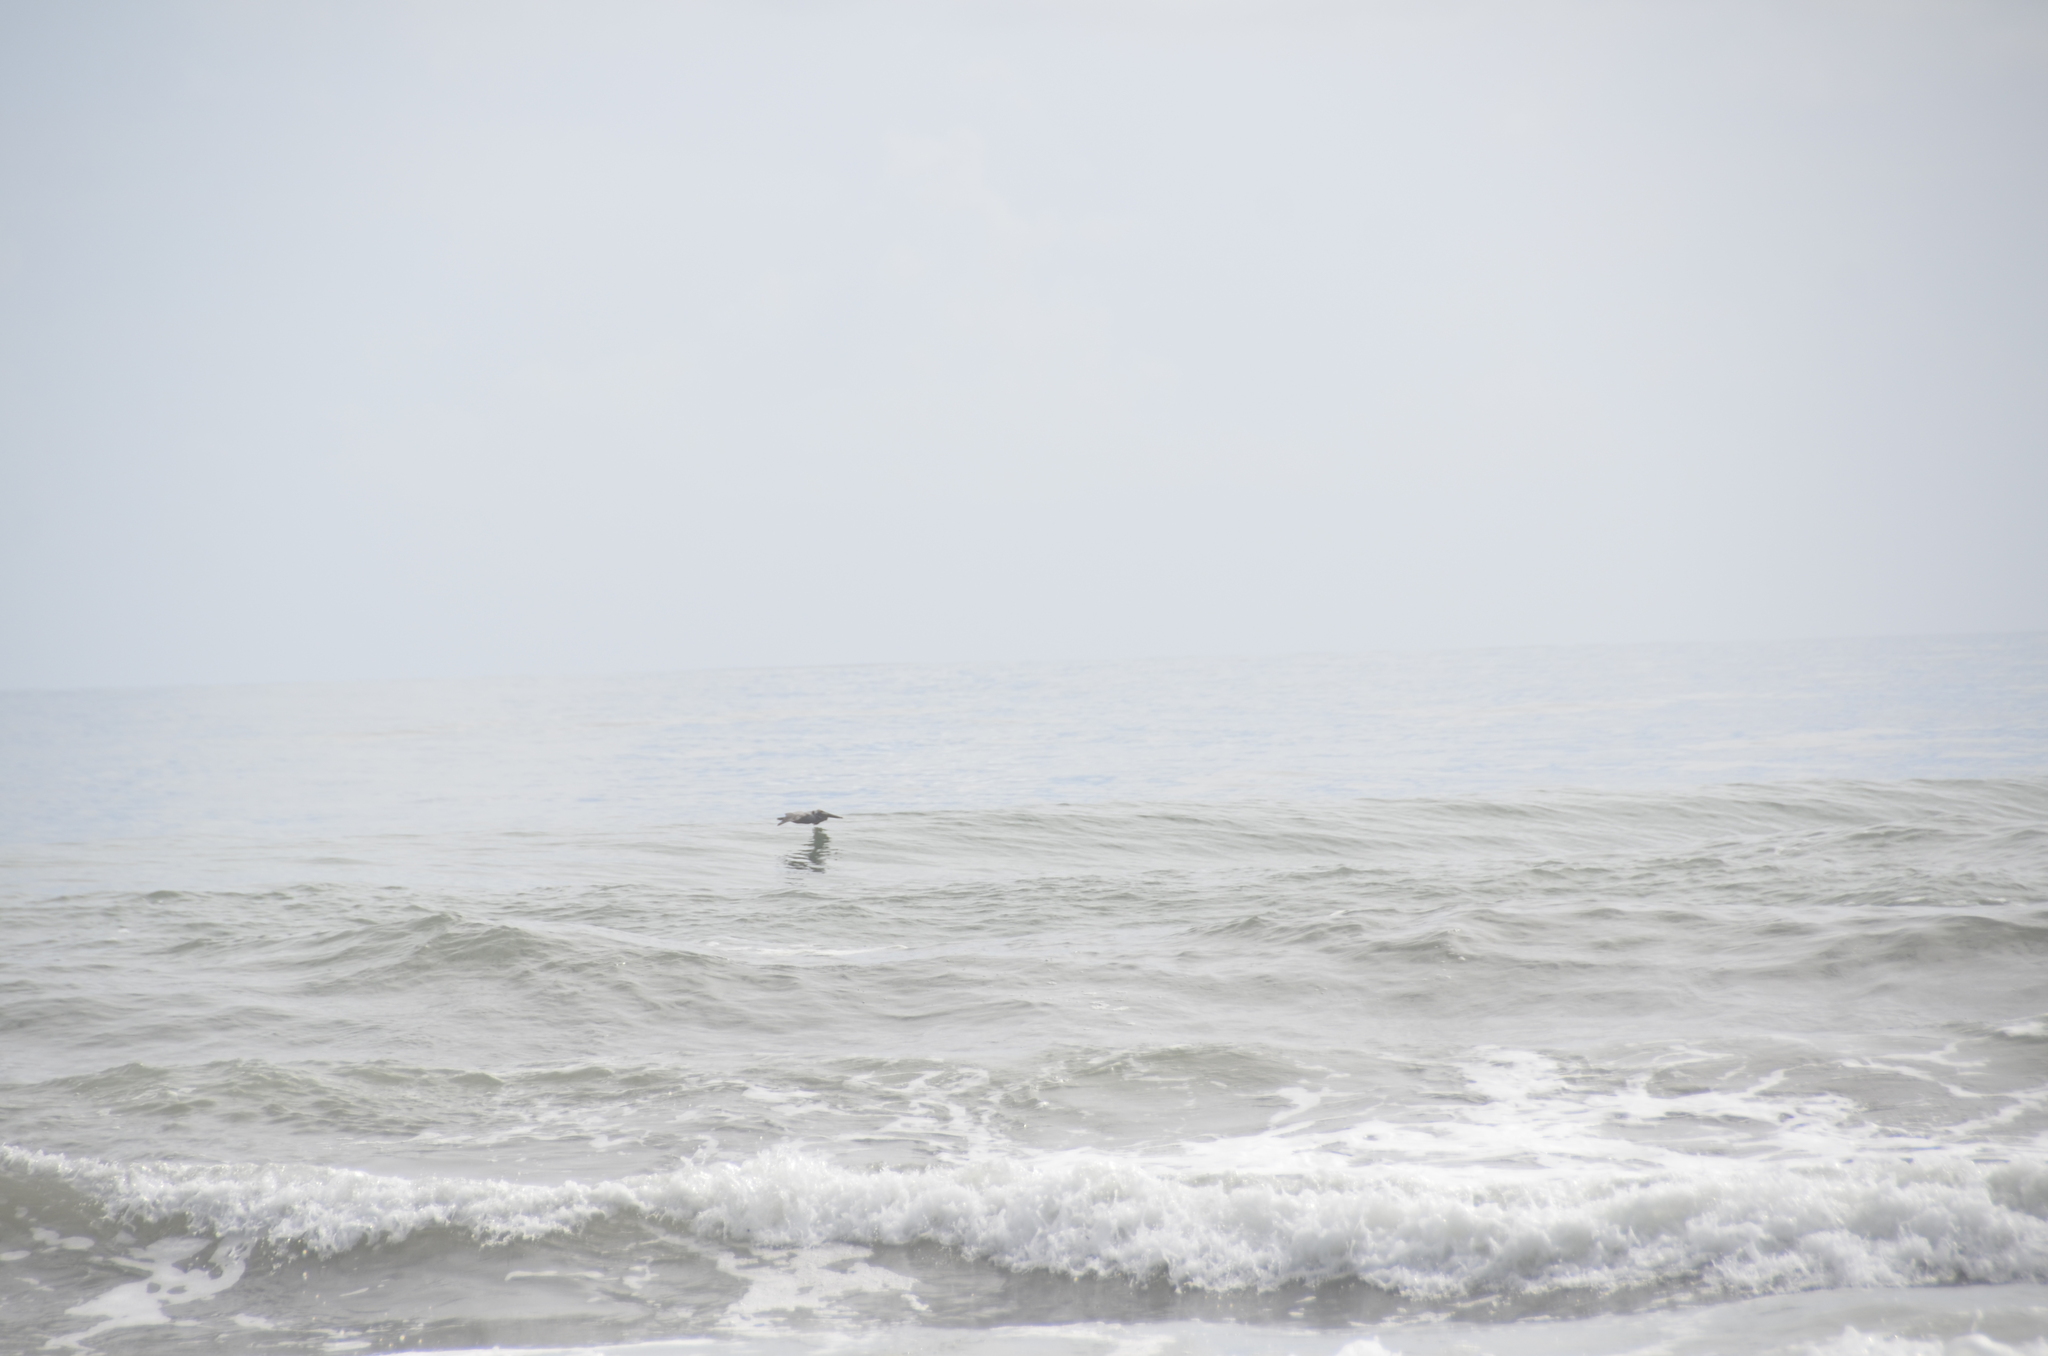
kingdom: Animalia
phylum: Chordata
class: Aves
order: Pelecaniformes
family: Pelecanidae
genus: Pelecanus
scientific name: Pelecanus occidentalis
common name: Brown pelican
